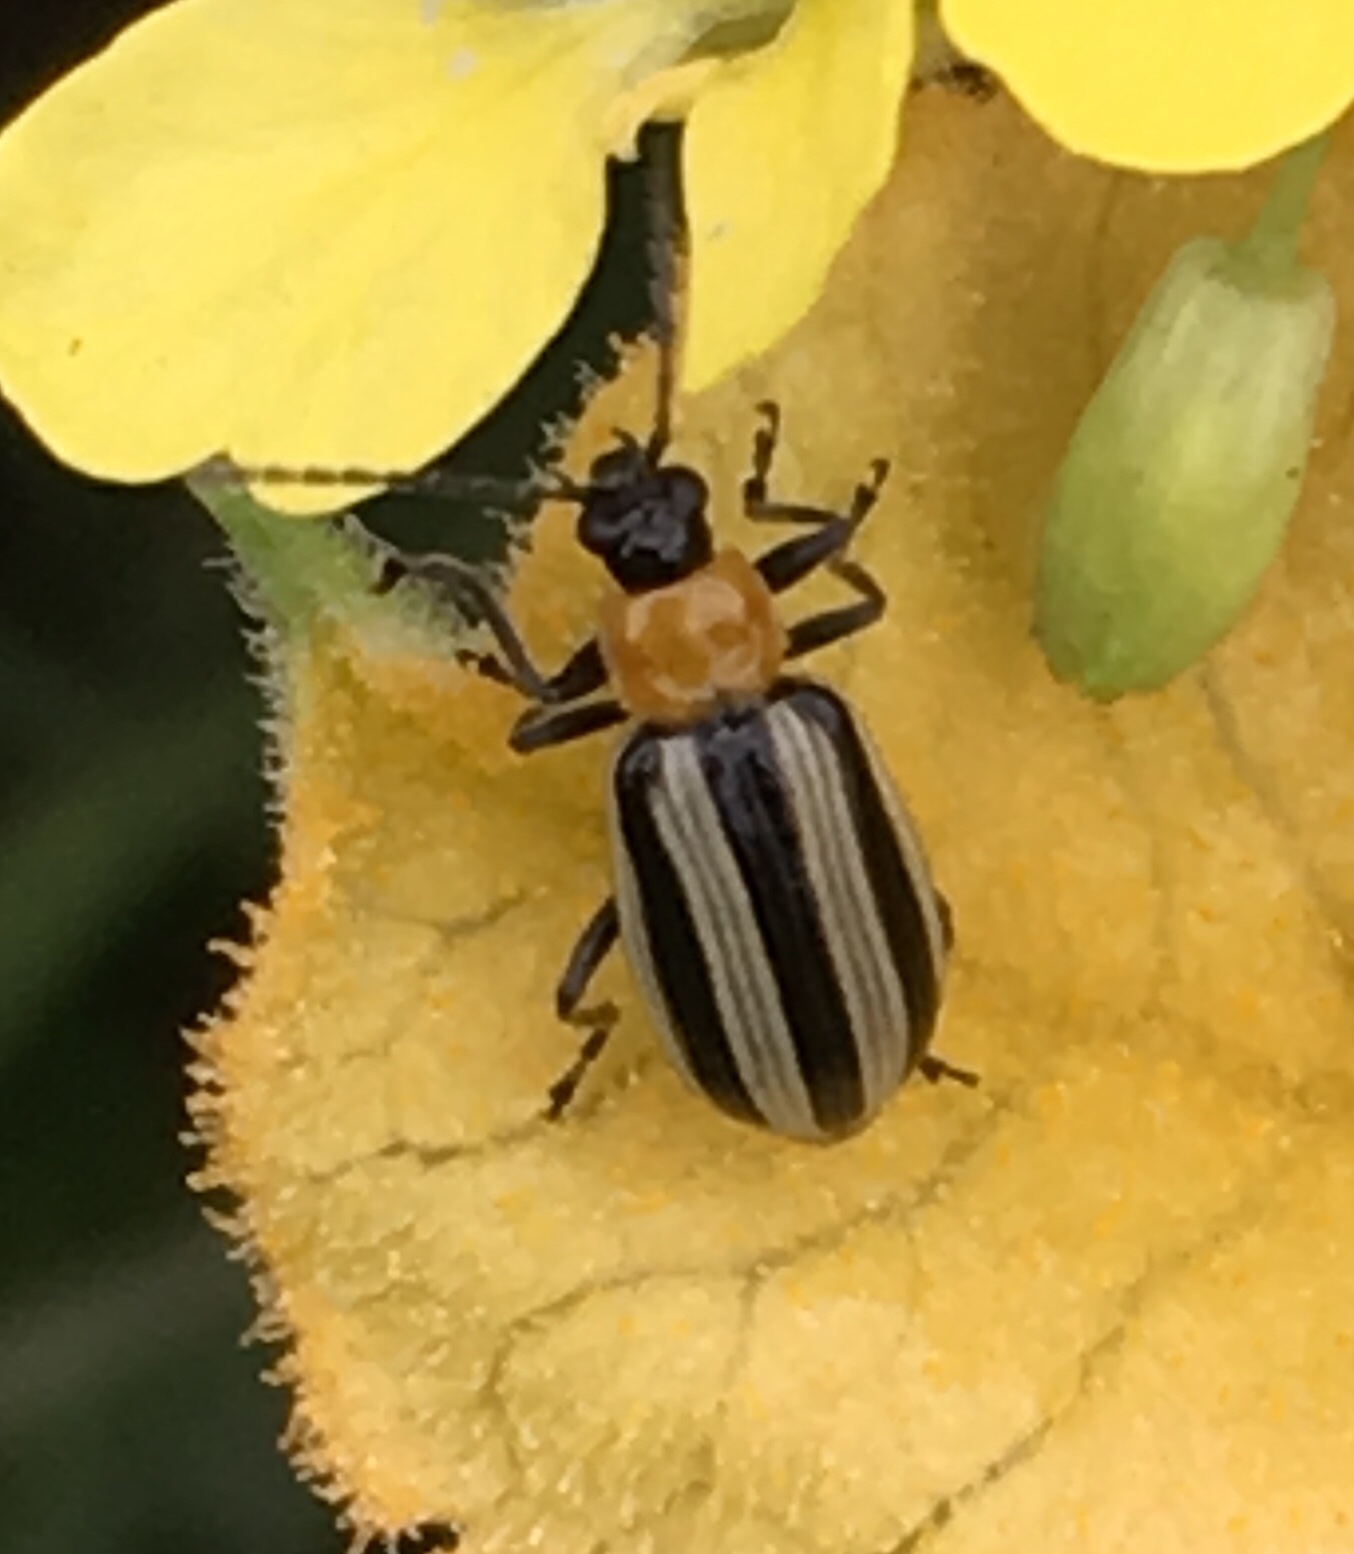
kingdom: Animalia
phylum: Arthropoda
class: Insecta
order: Coleoptera
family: Chrysomelidae
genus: Acalymma
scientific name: Acalymma trivittatum
